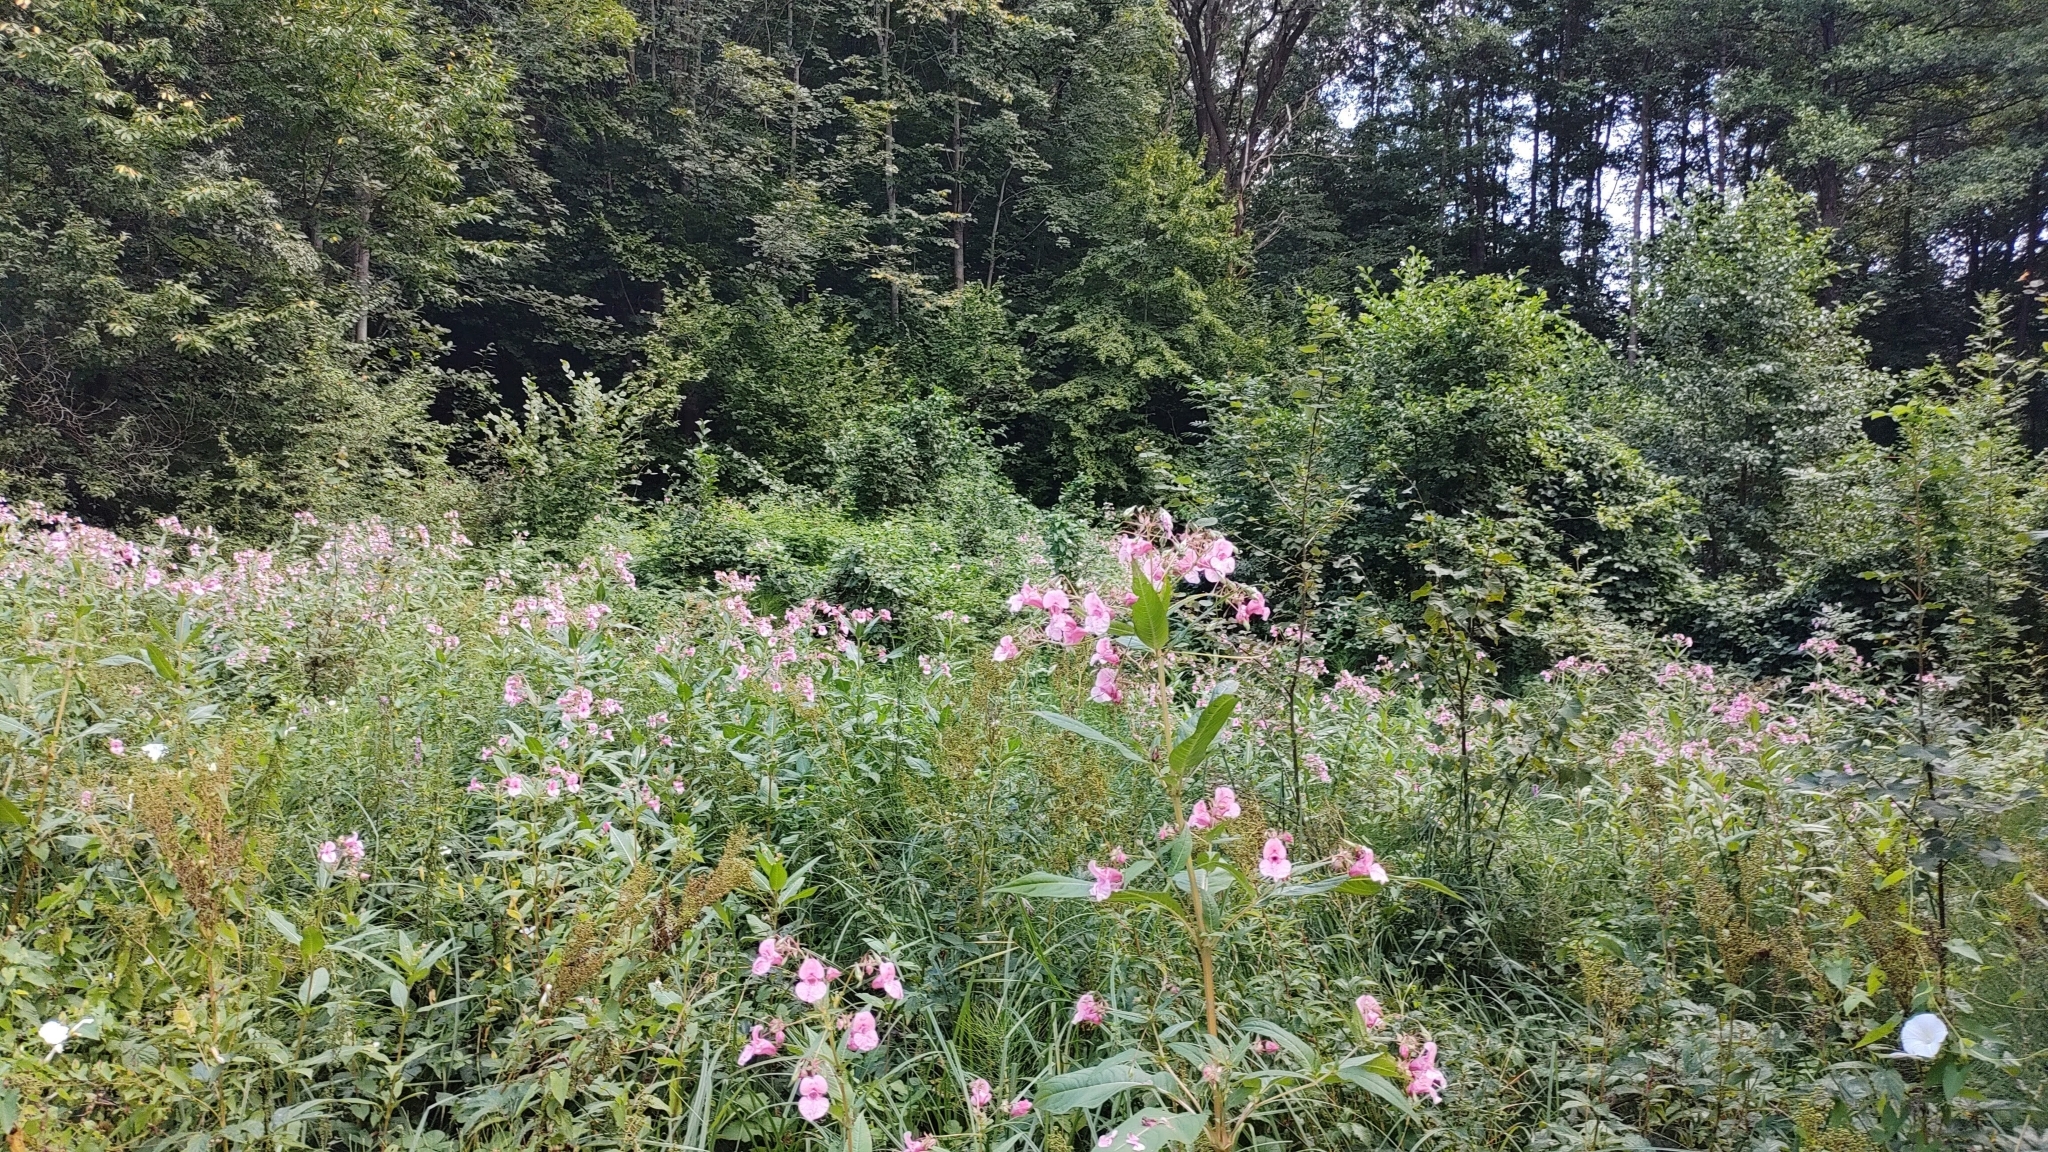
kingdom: Plantae
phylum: Tracheophyta
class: Magnoliopsida
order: Ericales
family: Balsaminaceae
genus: Impatiens
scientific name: Impatiens glandulifera
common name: Himalayan balsam
